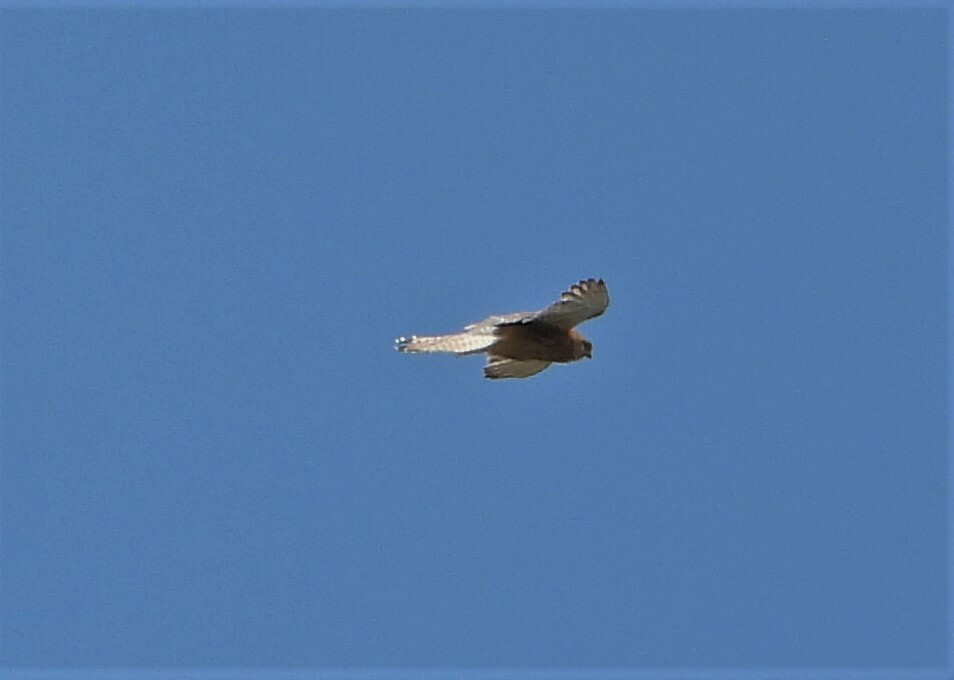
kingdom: Animalia
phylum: Chordata
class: Aves
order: Falconiformes
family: Falconidae
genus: Falco
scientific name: Falco tinnunculus
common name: Common kestrel
